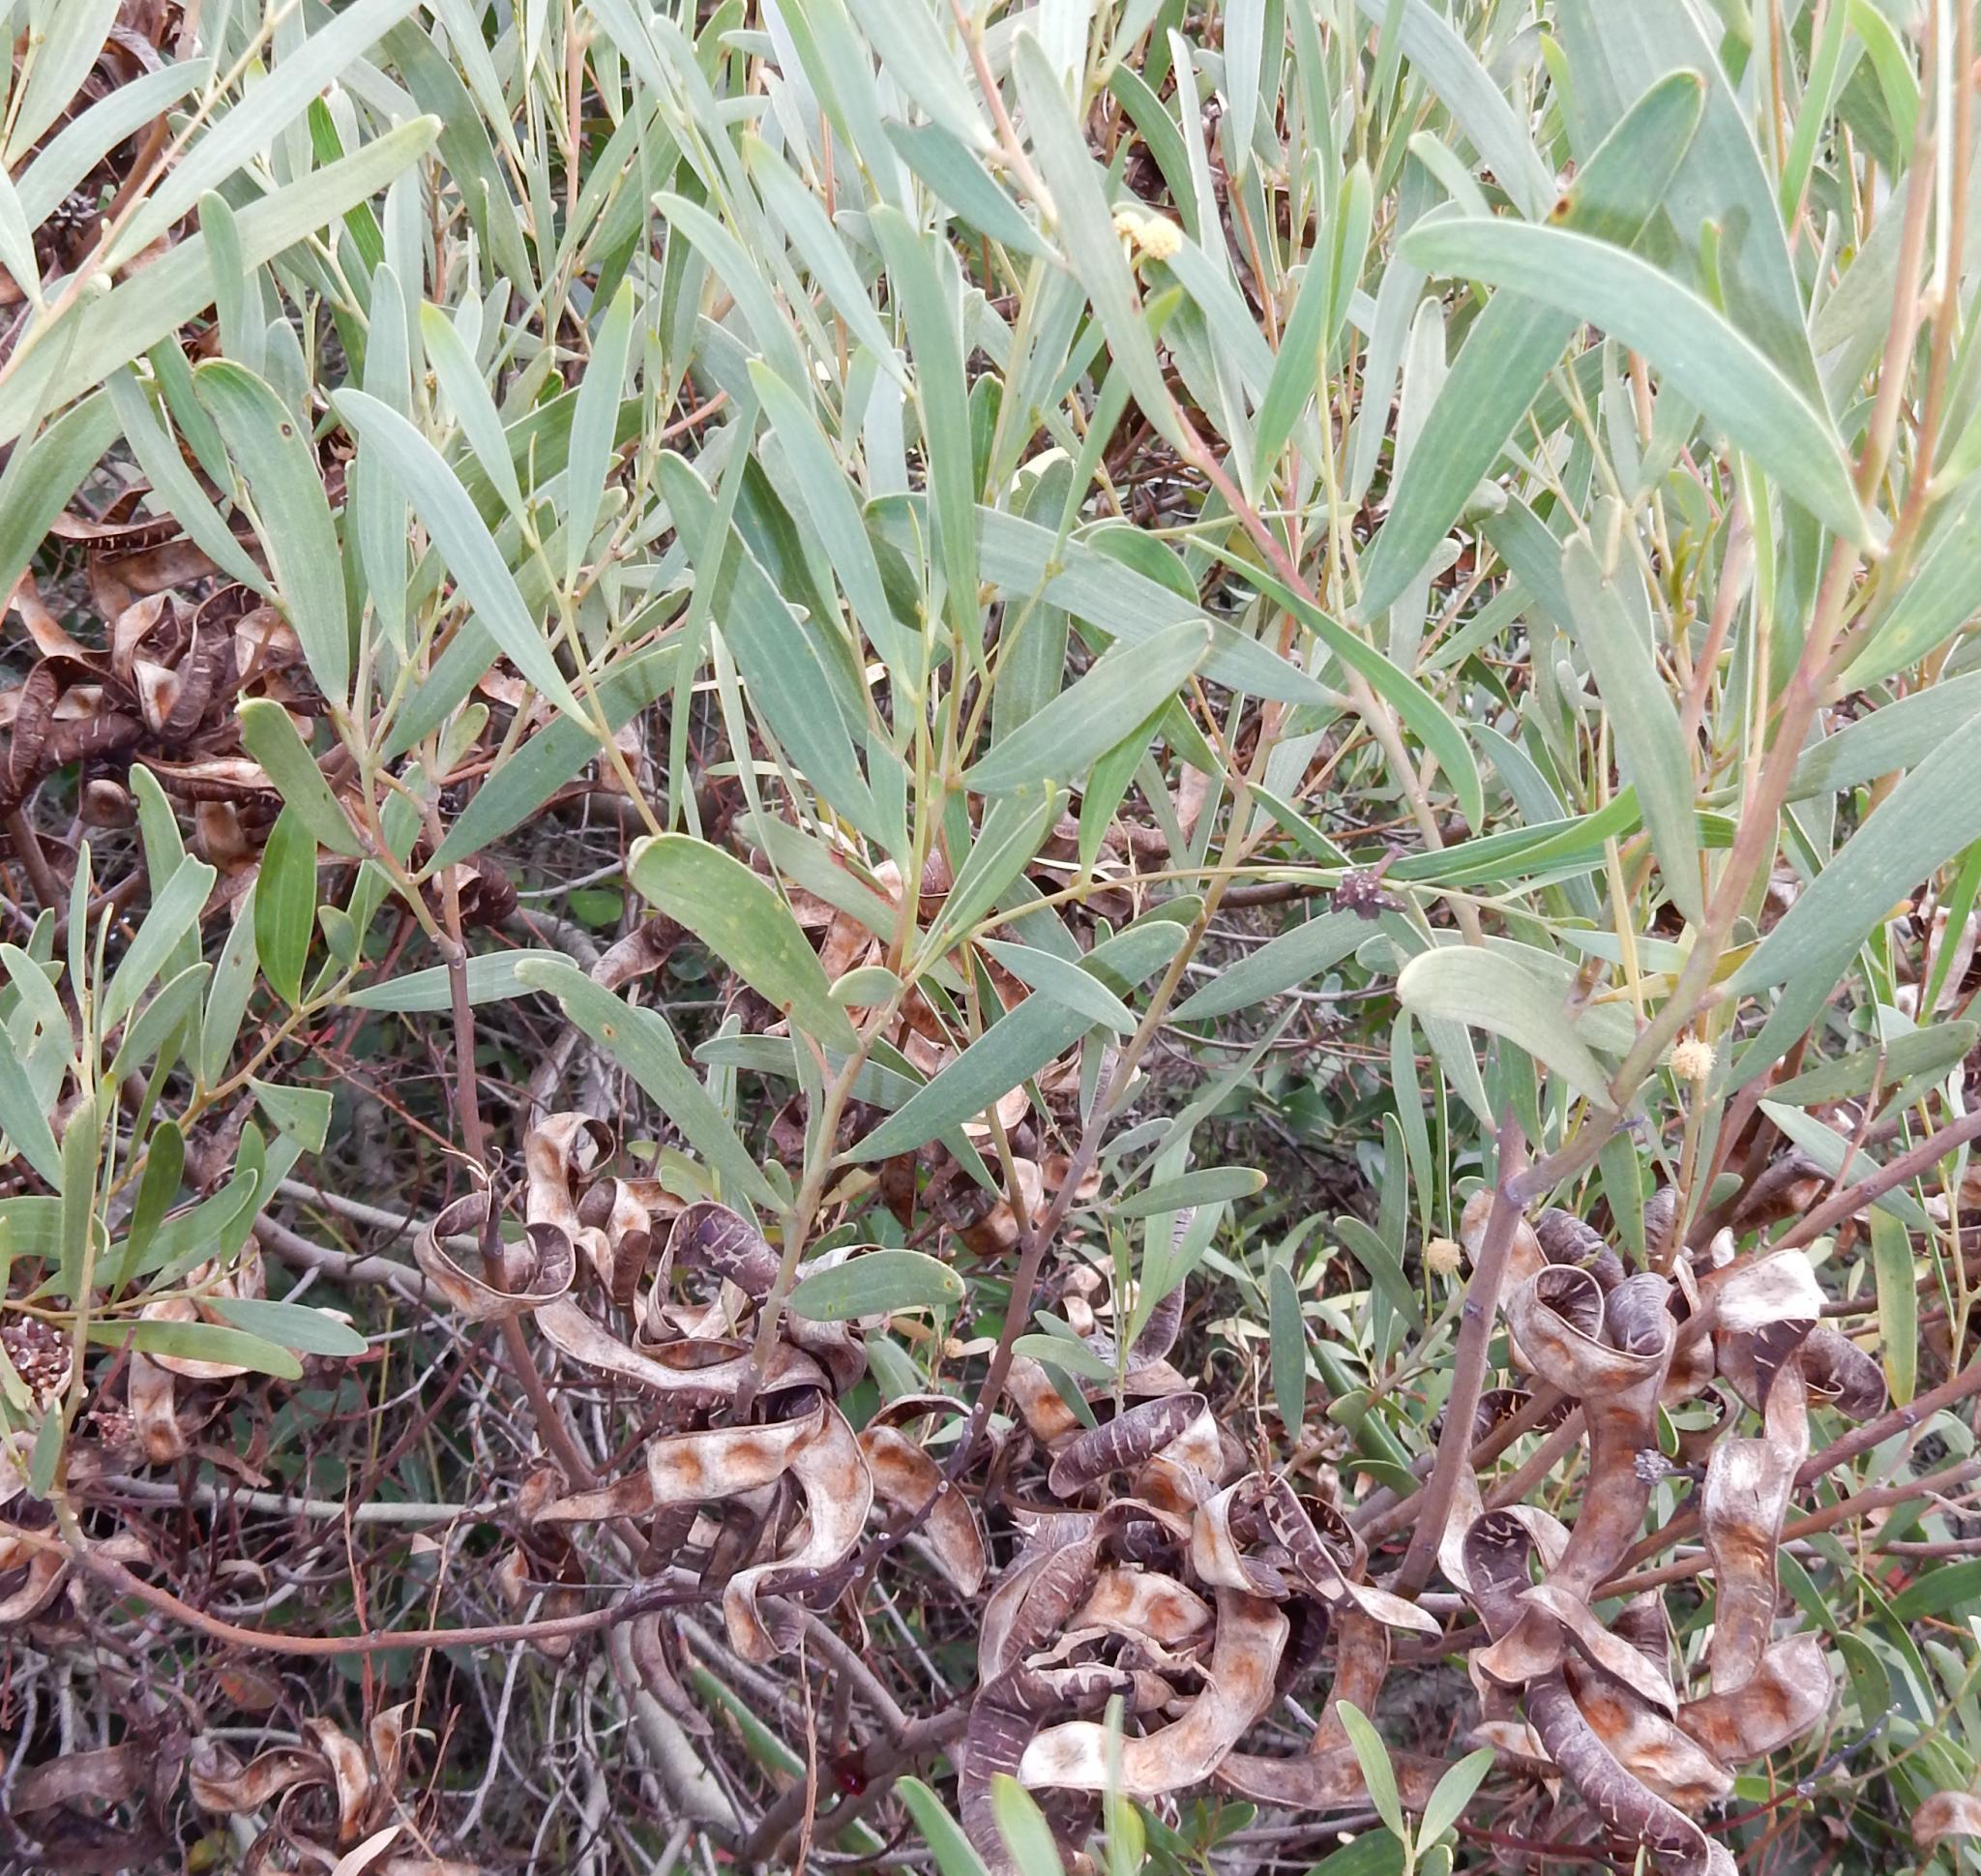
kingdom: Plantae
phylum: Tracheophyta
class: Magnoliopsida
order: Fabales
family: Fabaceae
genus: Acacia
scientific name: Acacia cyclops
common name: Coastal wattle
